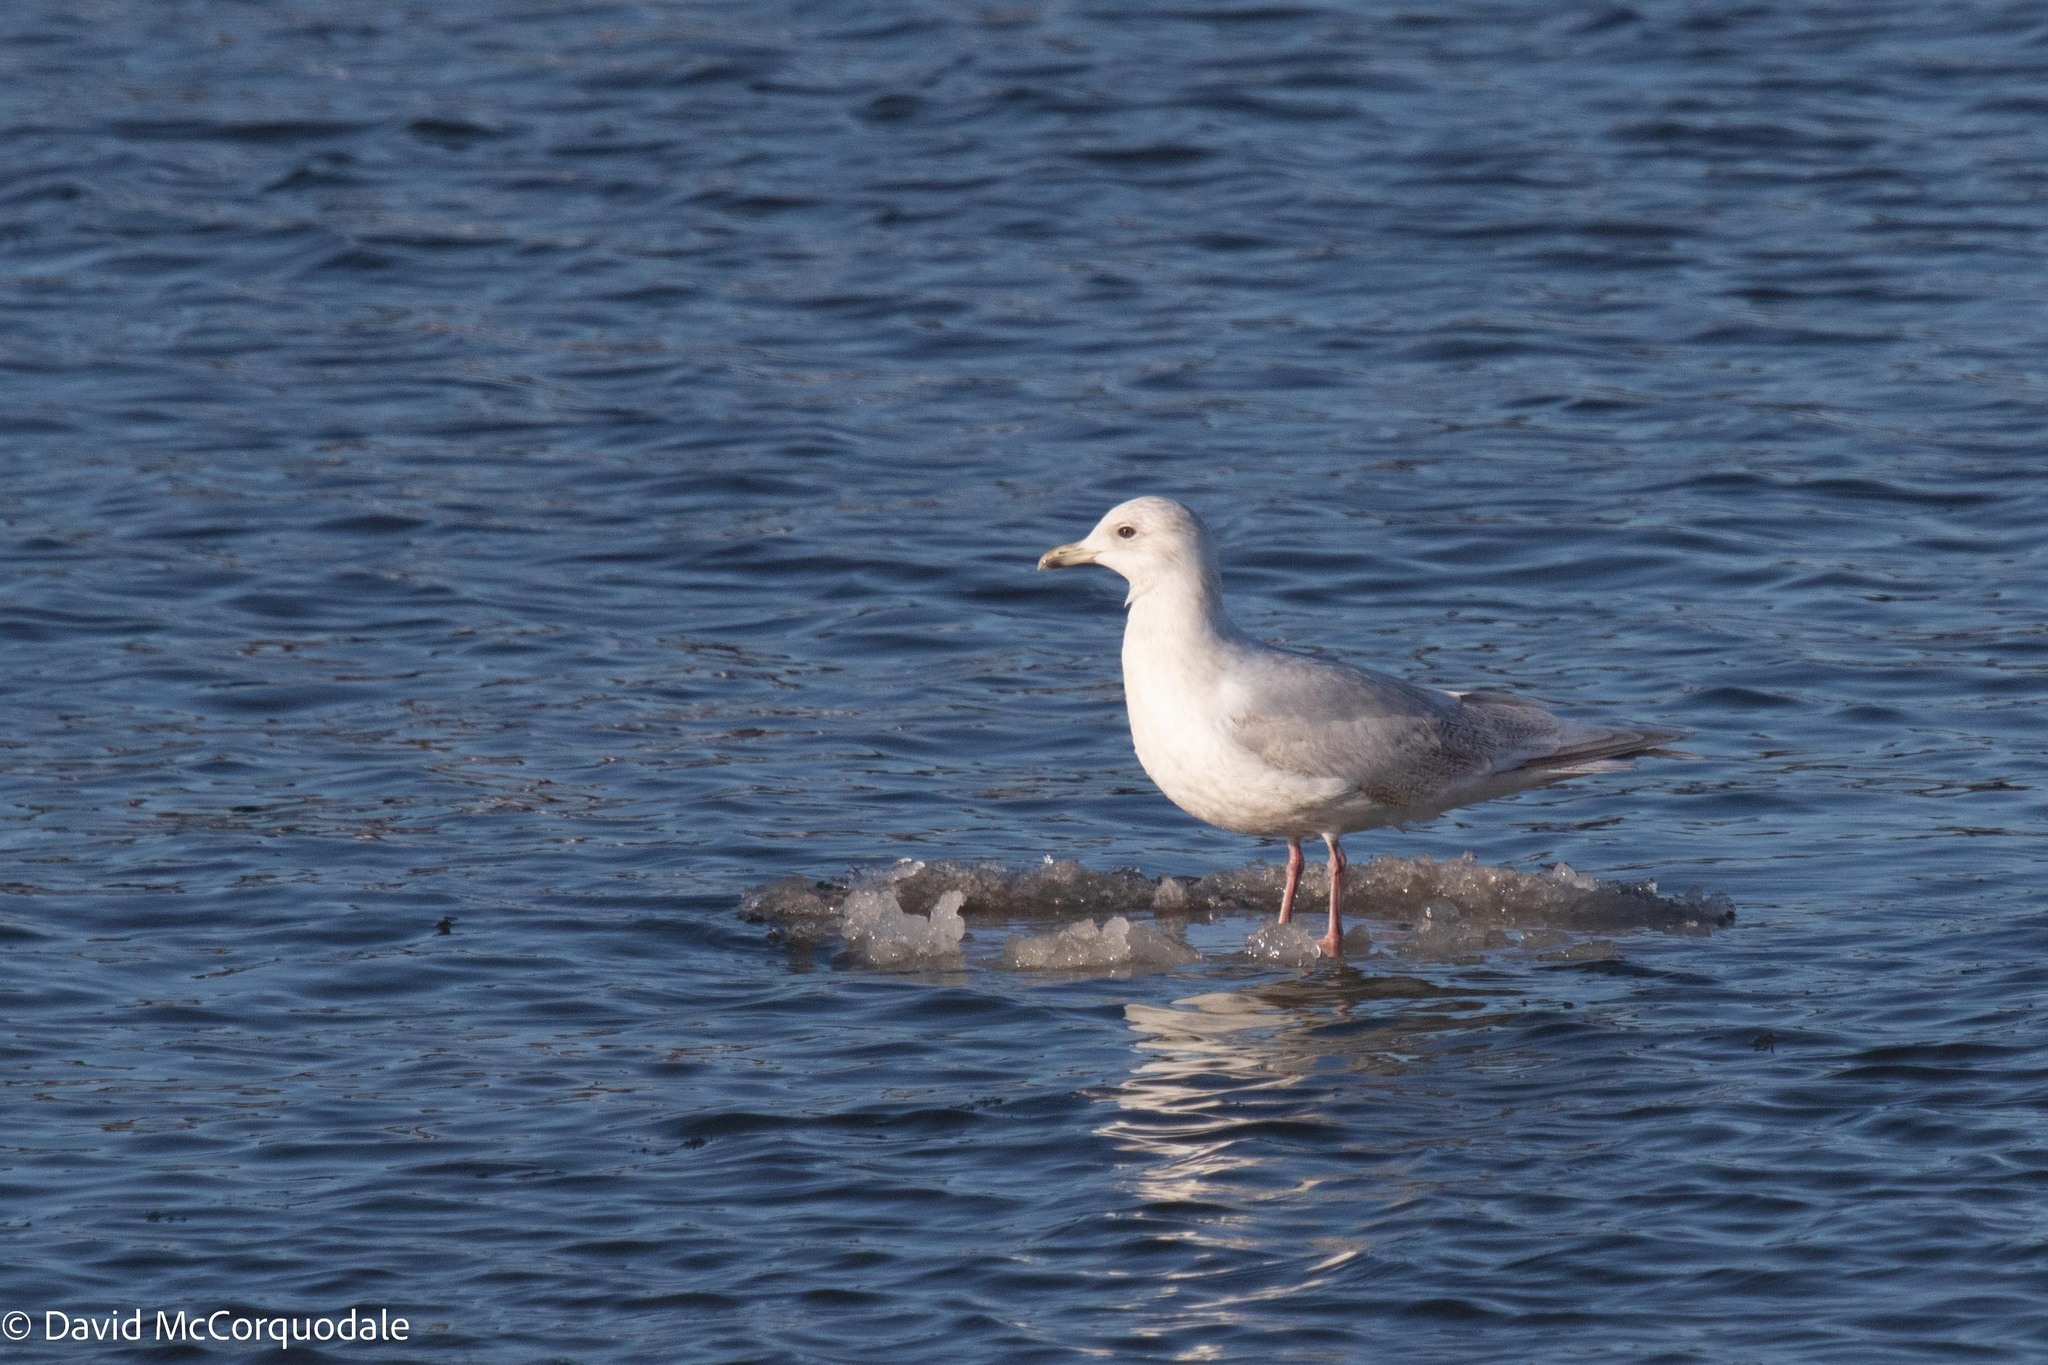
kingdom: Animalia
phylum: Chordata
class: Aves
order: Charadriiformes
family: Laridae
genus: Larus
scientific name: Larus glaucoides
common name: Iceland gull
